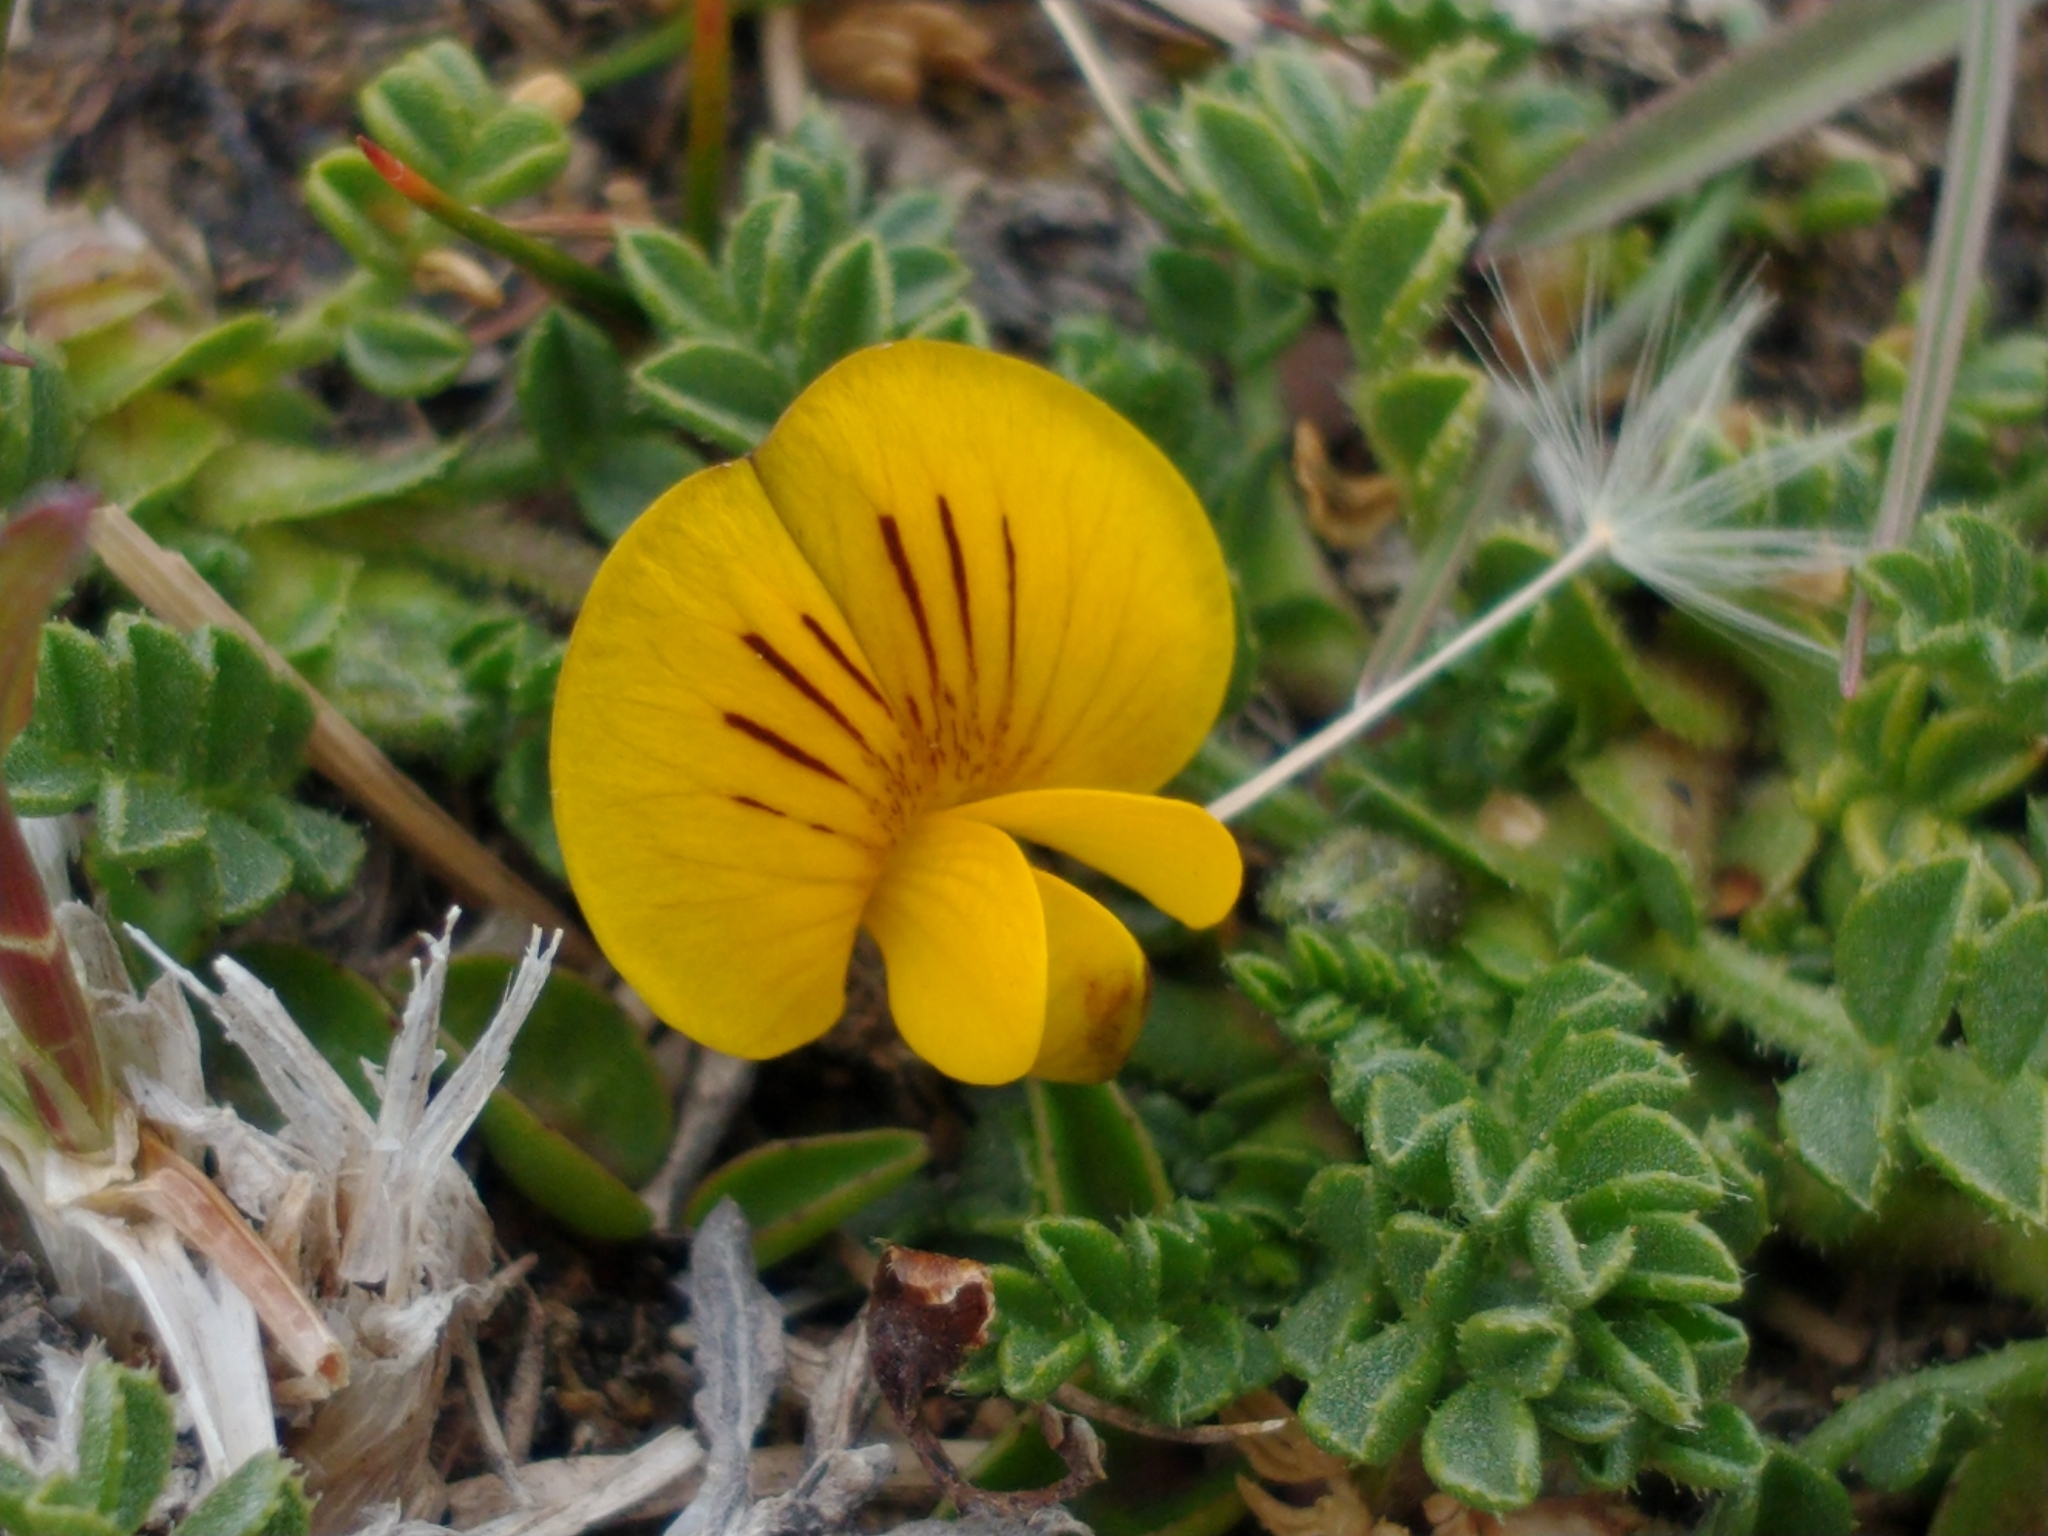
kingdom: Plantae
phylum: Tracheophyta
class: Magnoliopsida
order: Fabales
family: Fabaceae
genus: Adesmia
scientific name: Adesmia pumila
